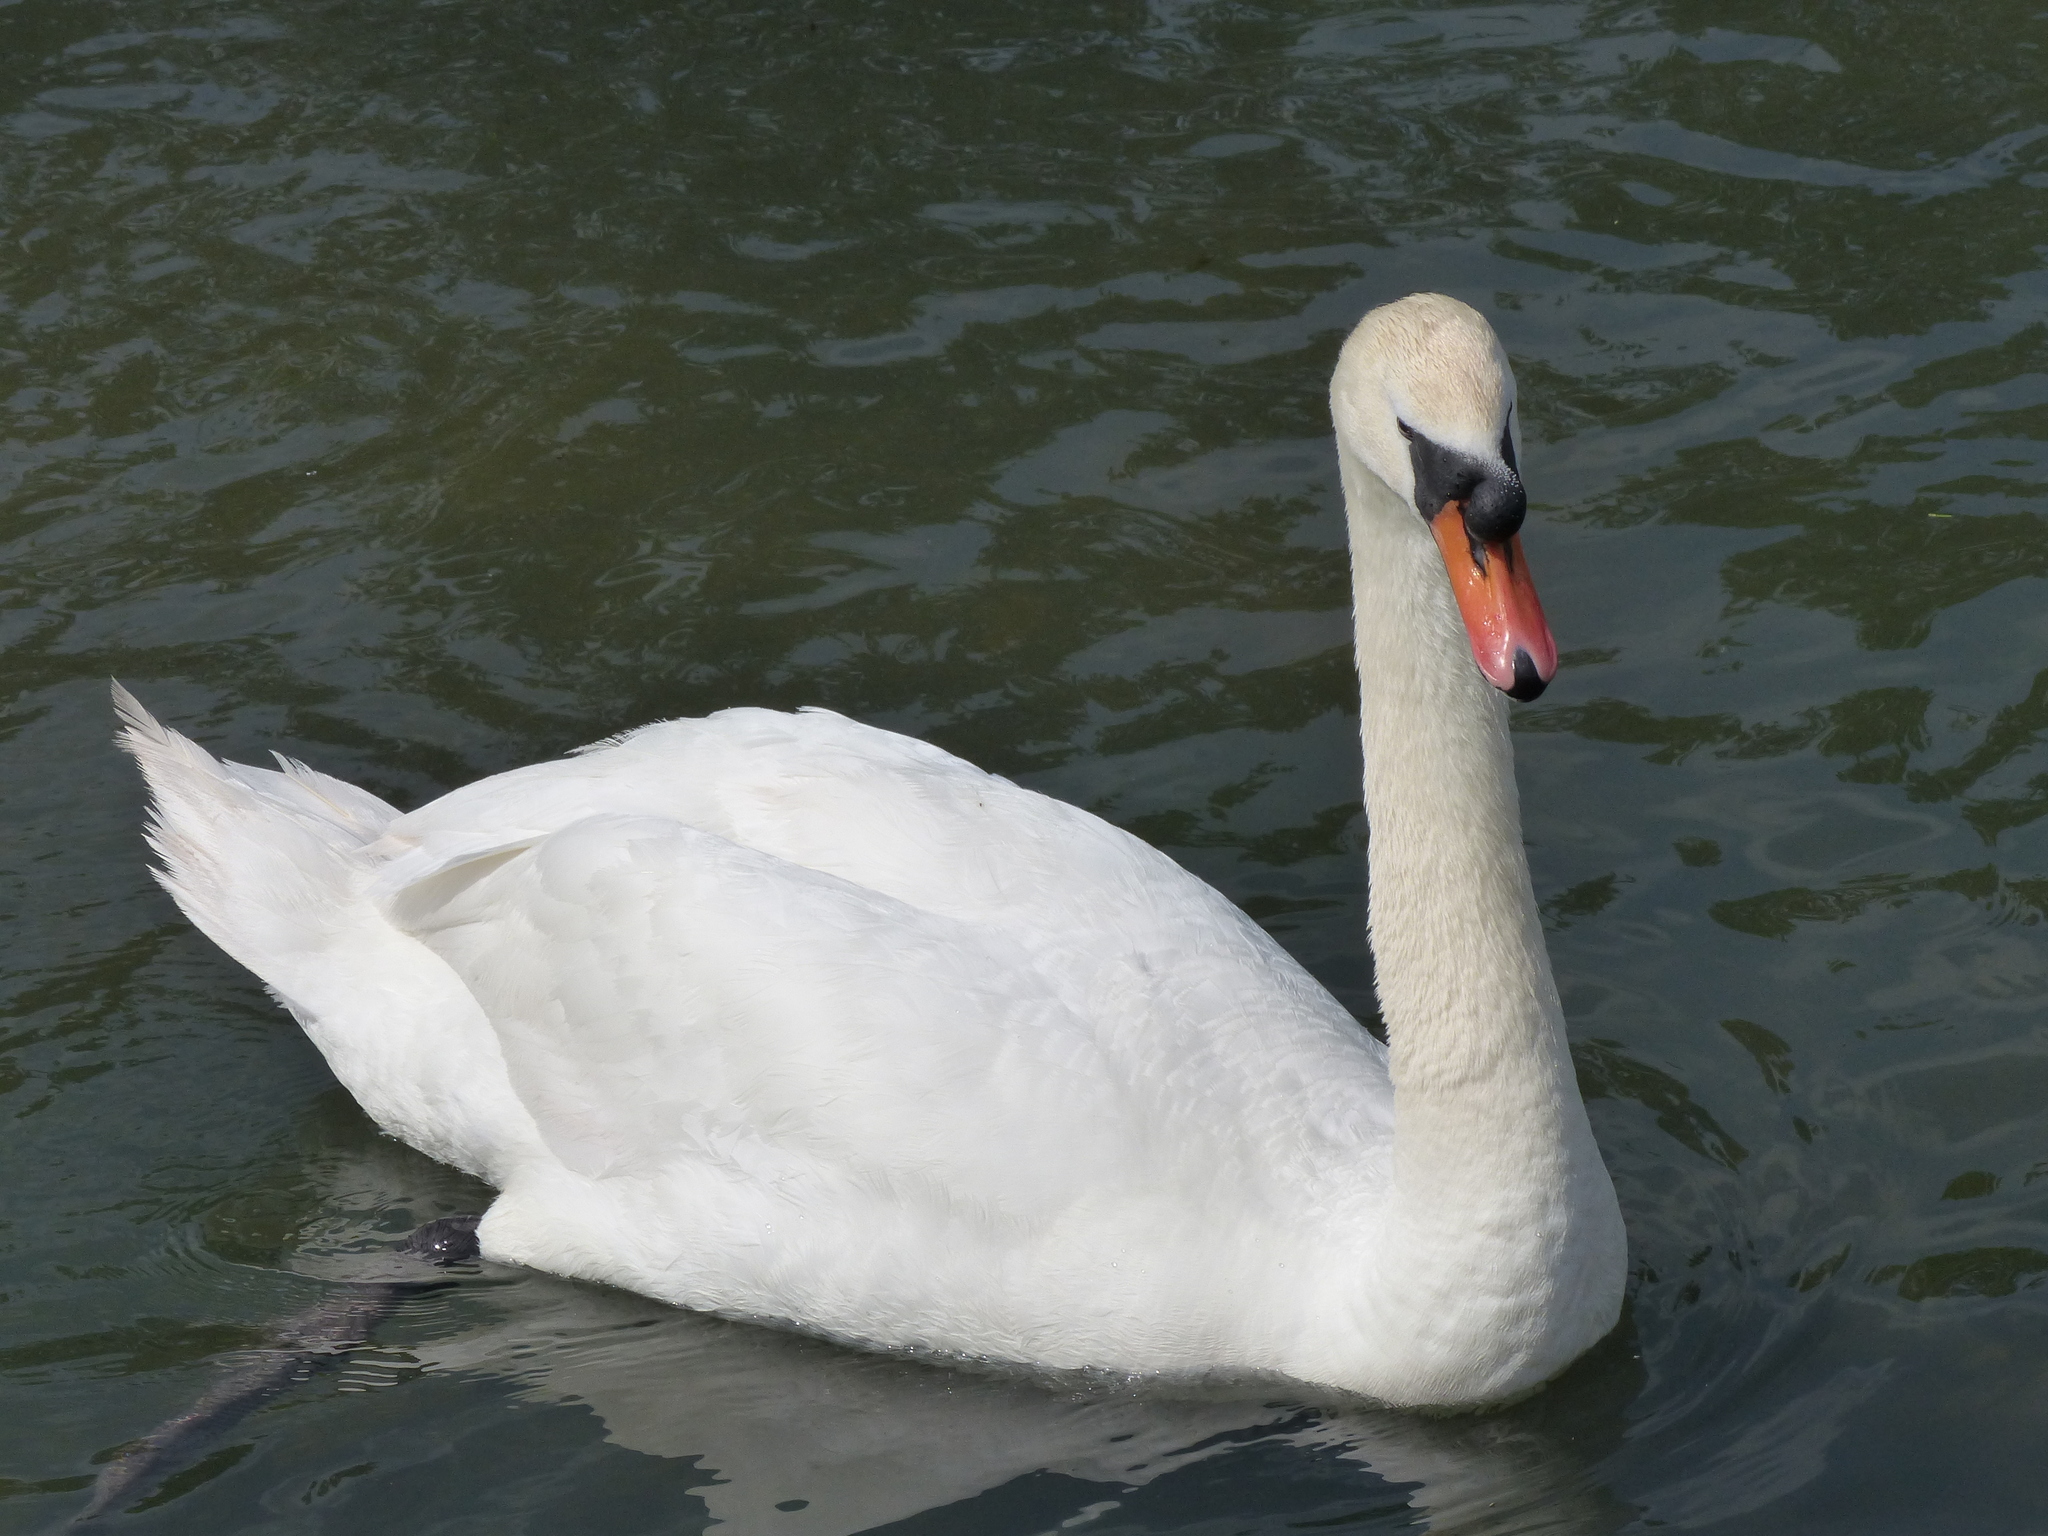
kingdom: Animalia
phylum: Chordata
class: Aves
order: Anseriformes
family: Anatidae
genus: Cygnus
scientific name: Cygnus olor
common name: Mute swan
